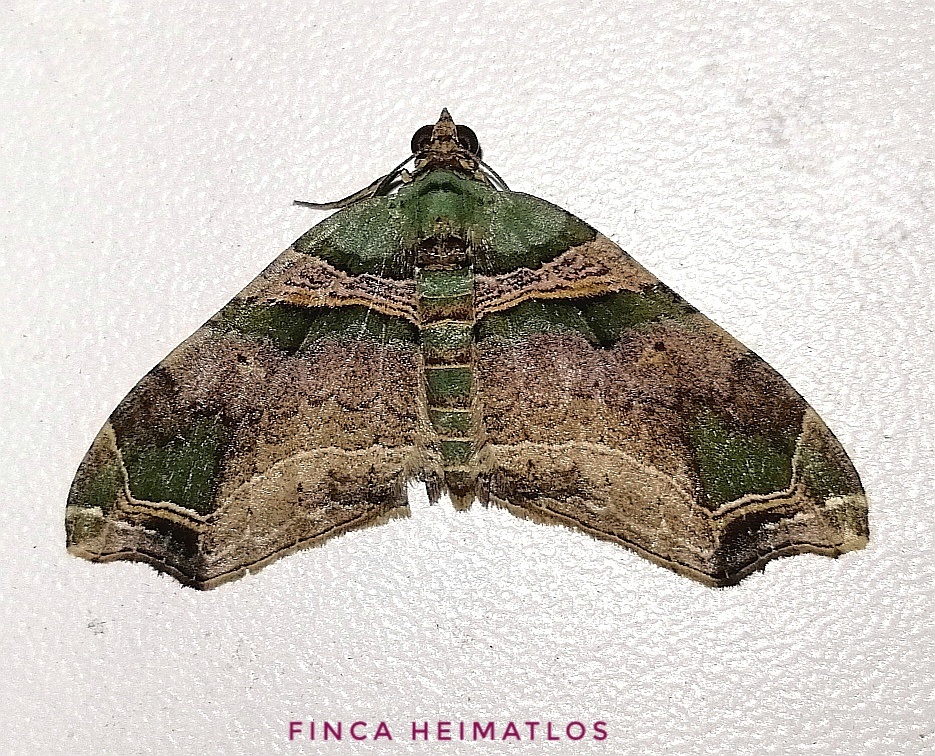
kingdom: Animalia
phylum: Arthropoda
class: Insecta
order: Lepidoptera
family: Geometridae
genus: Oligopleura
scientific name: Oligopleura aulaeata
